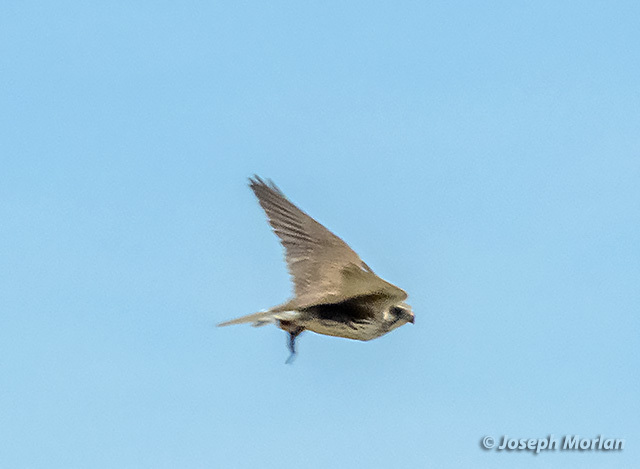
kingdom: Animalia
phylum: Chordata
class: Aves
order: Falconiformes
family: Falconidae
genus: Falco
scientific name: Falco mexicanus
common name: Prairie falcon
